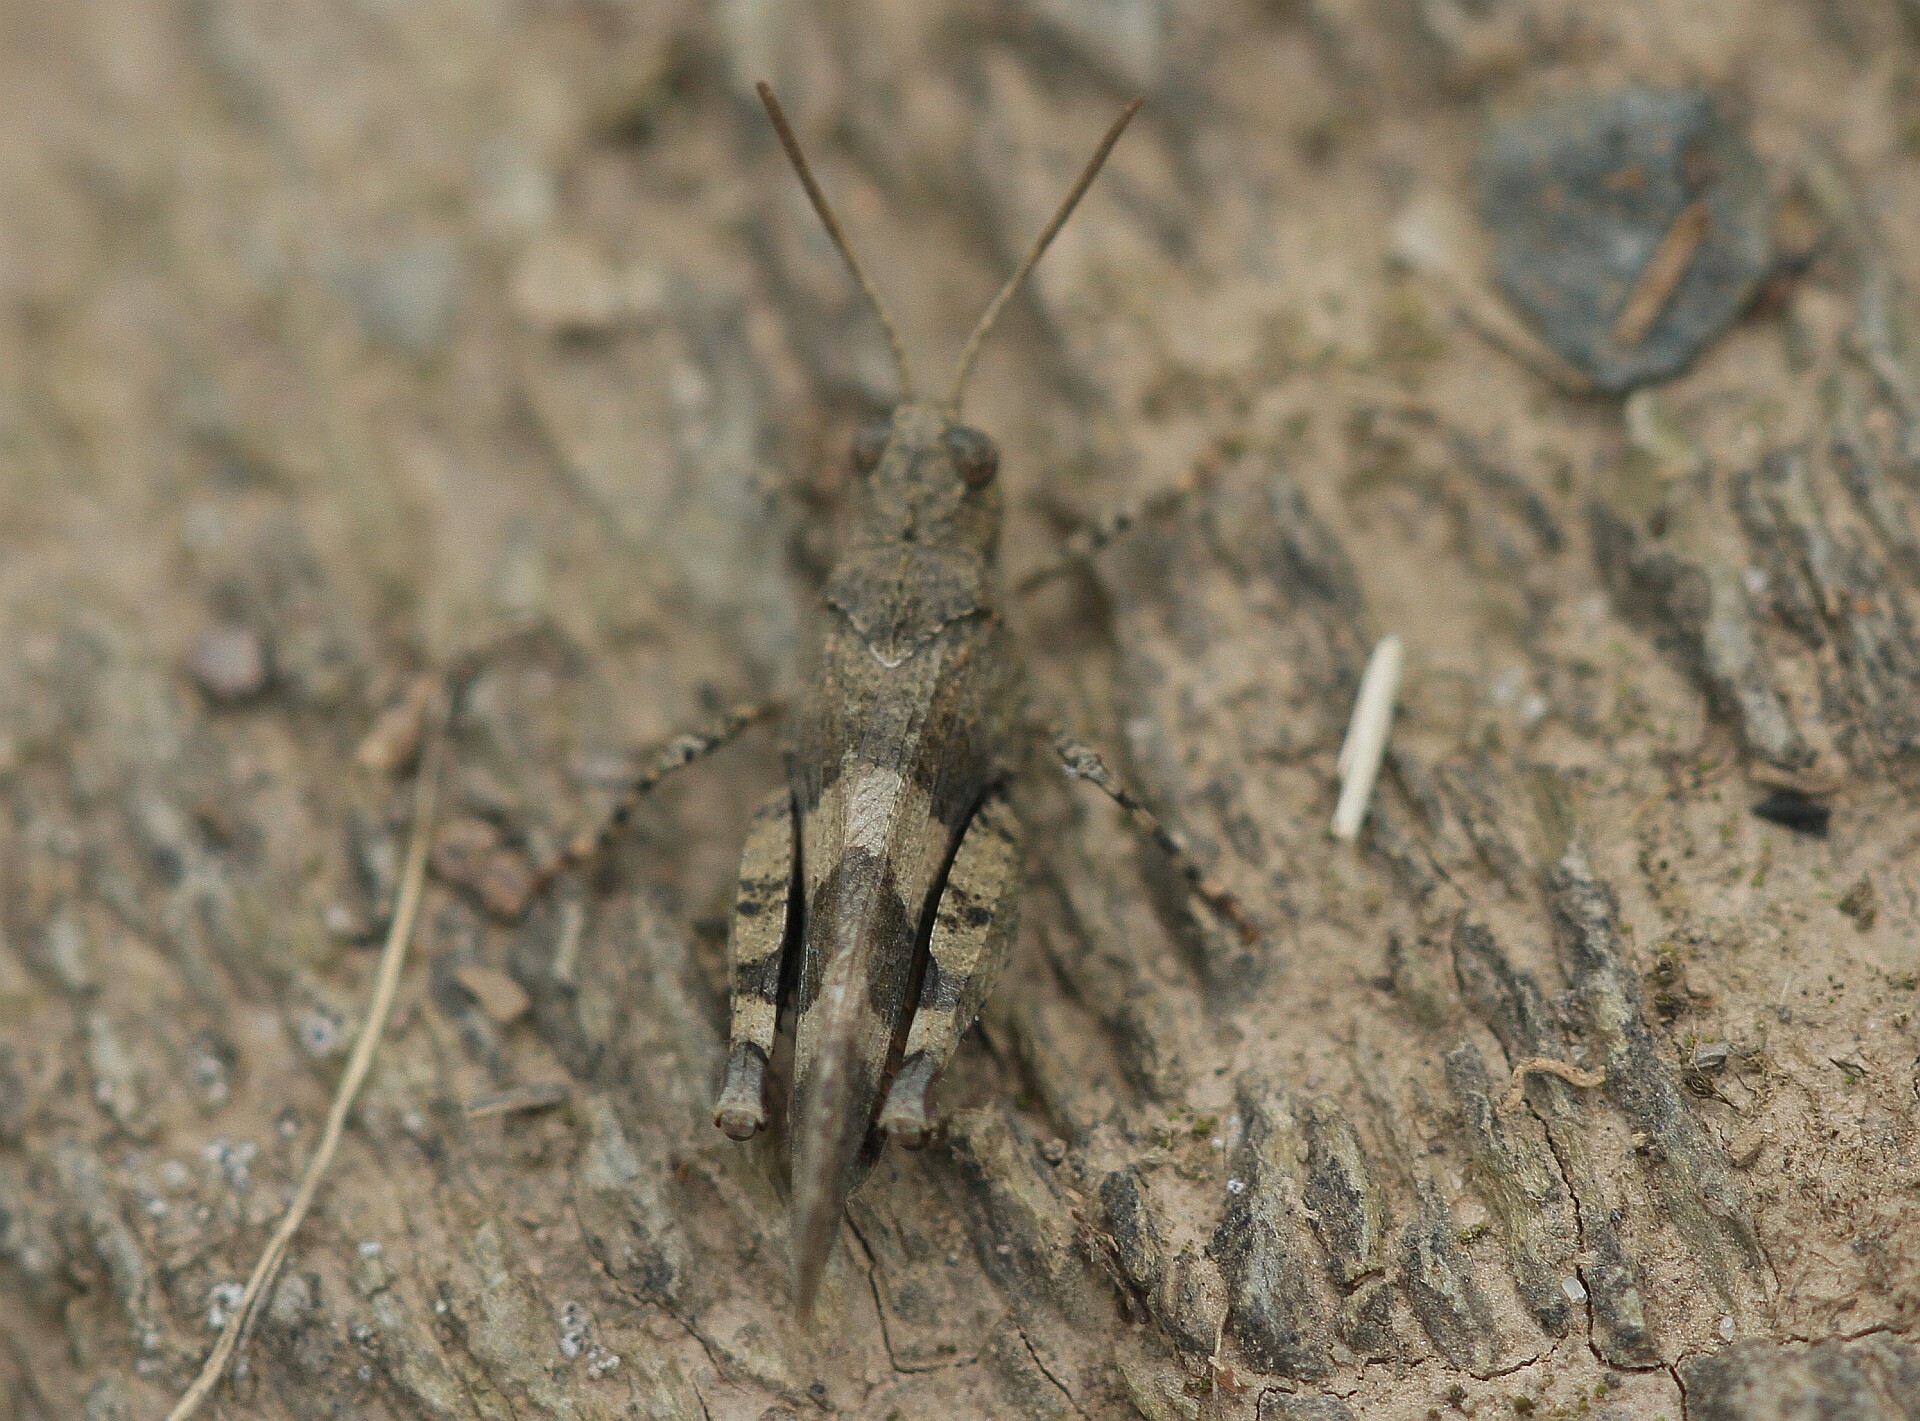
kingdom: Animalia
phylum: Arthropoda
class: Insecta
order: Orthoptera
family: Acrididae
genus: Oedipoda
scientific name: Oedipoda caerulescens
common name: Blue-winged grasshopper
